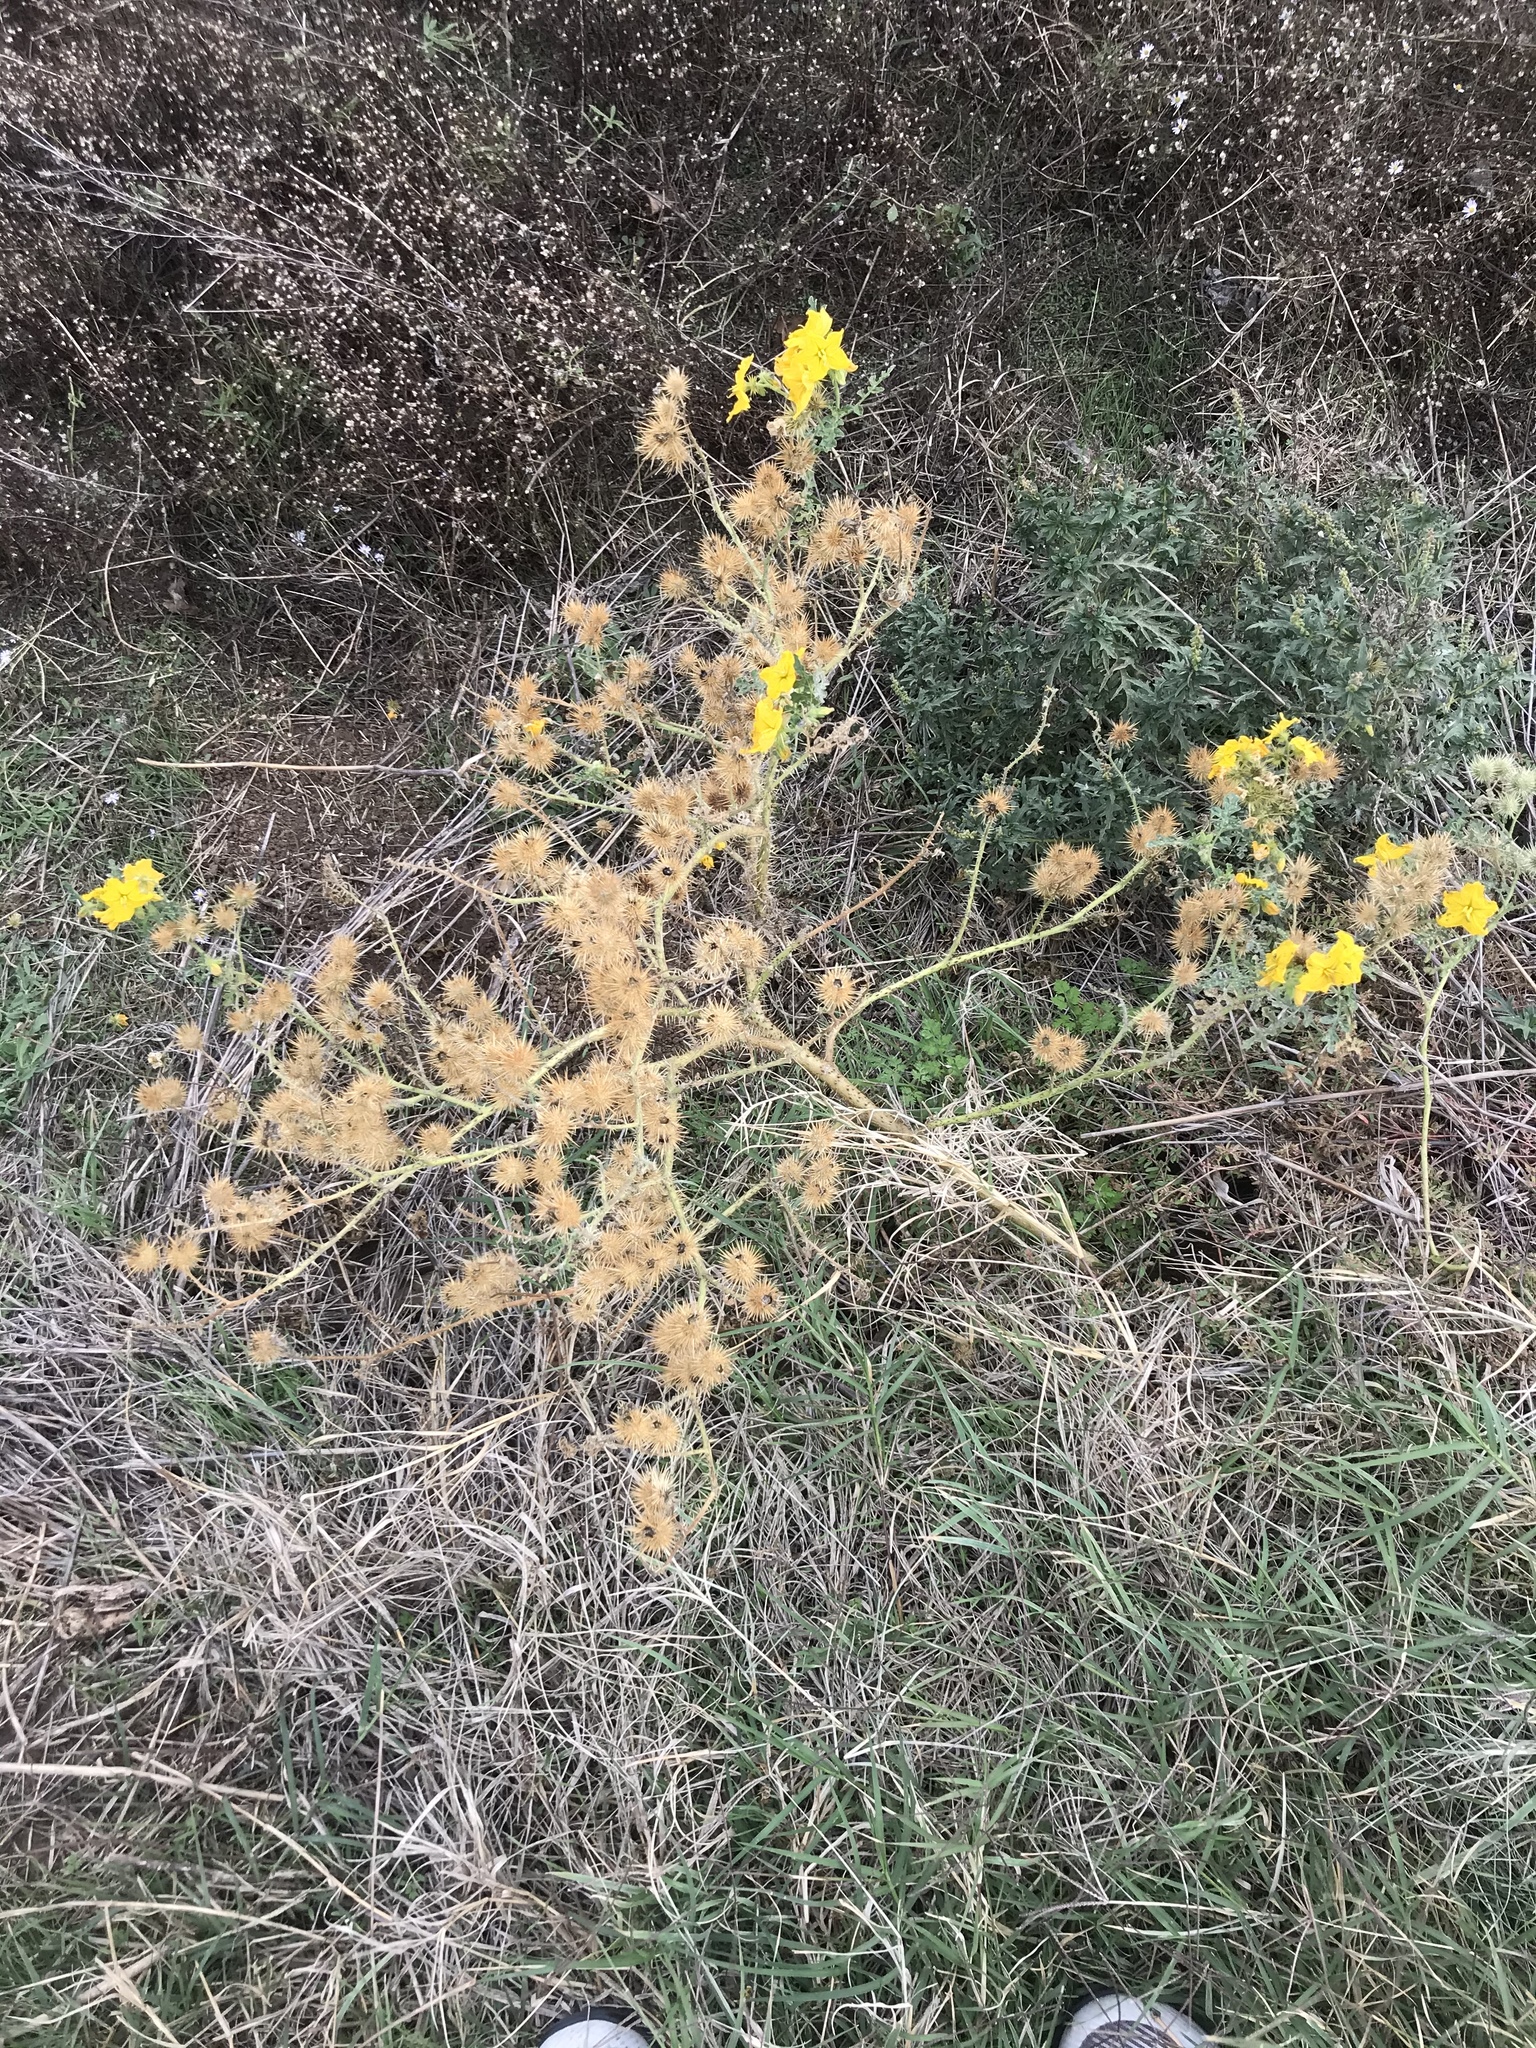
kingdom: Plantae
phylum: Tracheophyta
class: Magnoliopsida
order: Solanales
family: Solanaceae
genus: Solanum
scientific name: Solanum angustifolium
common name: Buffalobur nightshade
